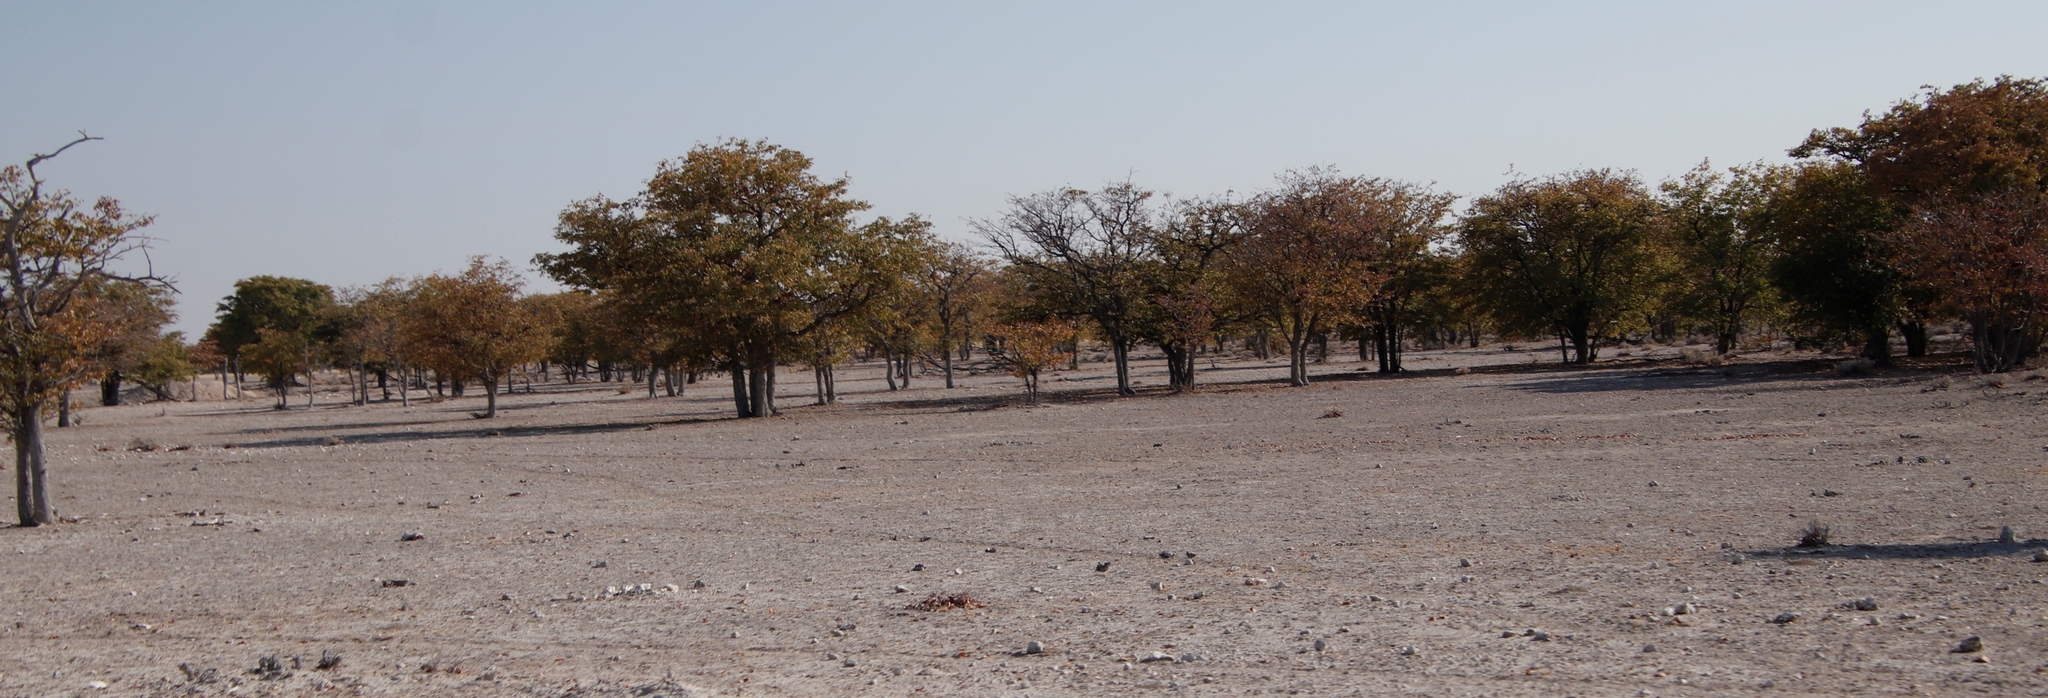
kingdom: Plantae
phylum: Tracheophyta
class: Magnoliopsida
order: Fabales
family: Fabaceae
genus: Colophospermum
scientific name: Colophospermum mopane
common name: Mopane
